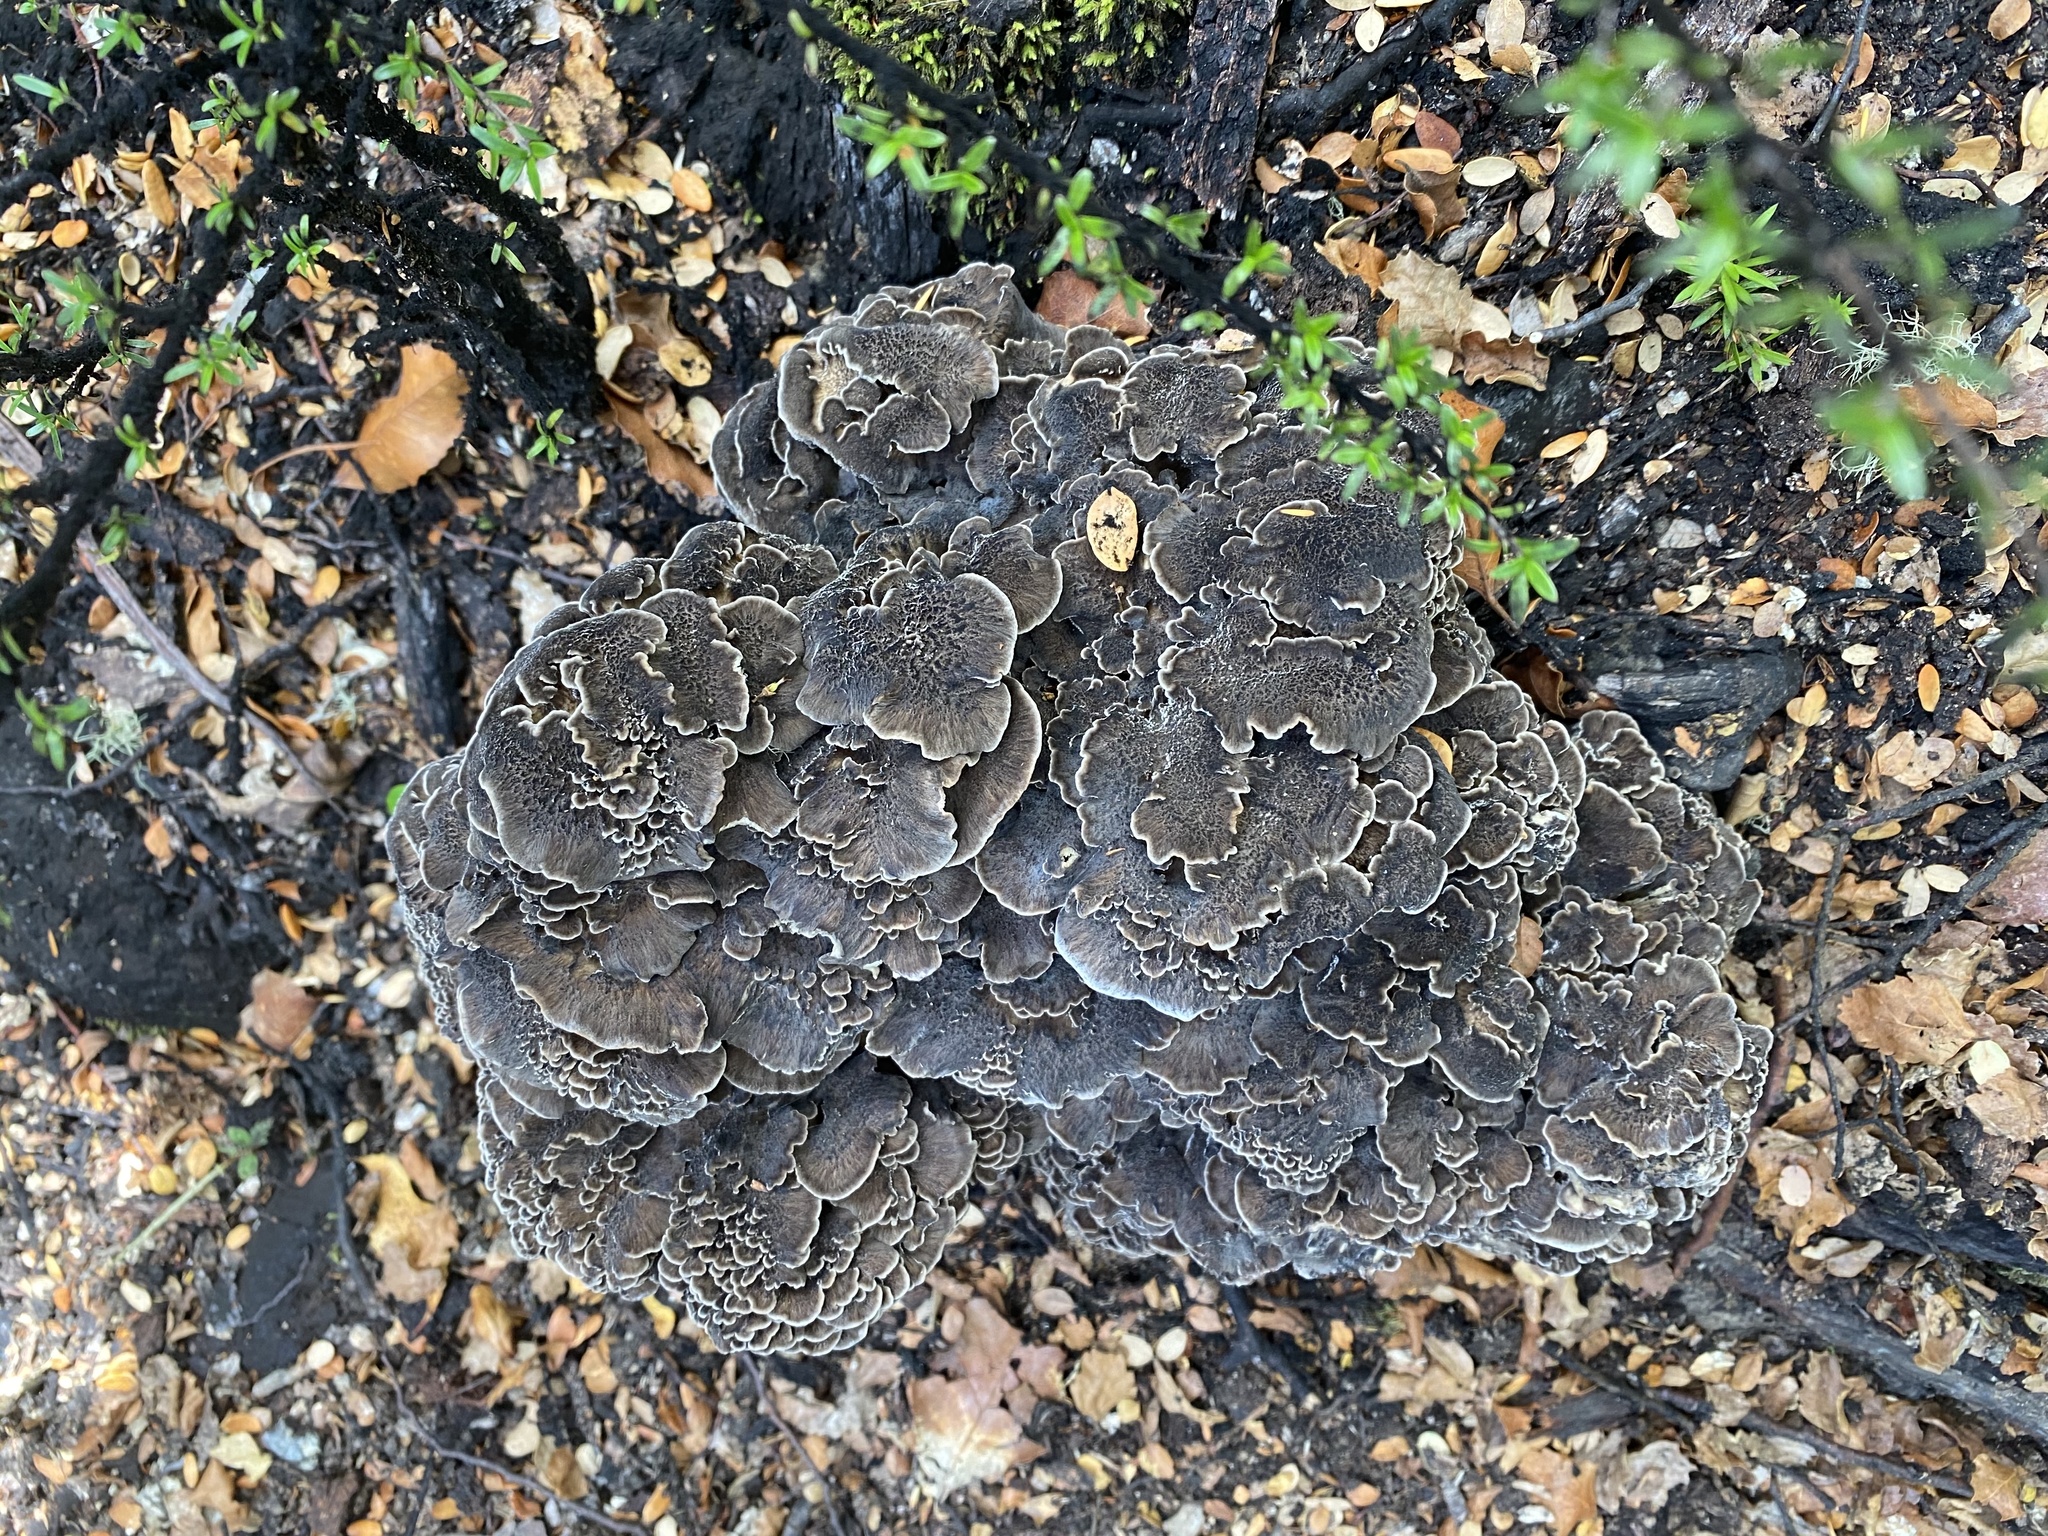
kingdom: Fungi
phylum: Basidiomycota
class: Agaricomycetes
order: Polyporales
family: Grifolaceae
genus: Grifola
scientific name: Grifola colensoi
